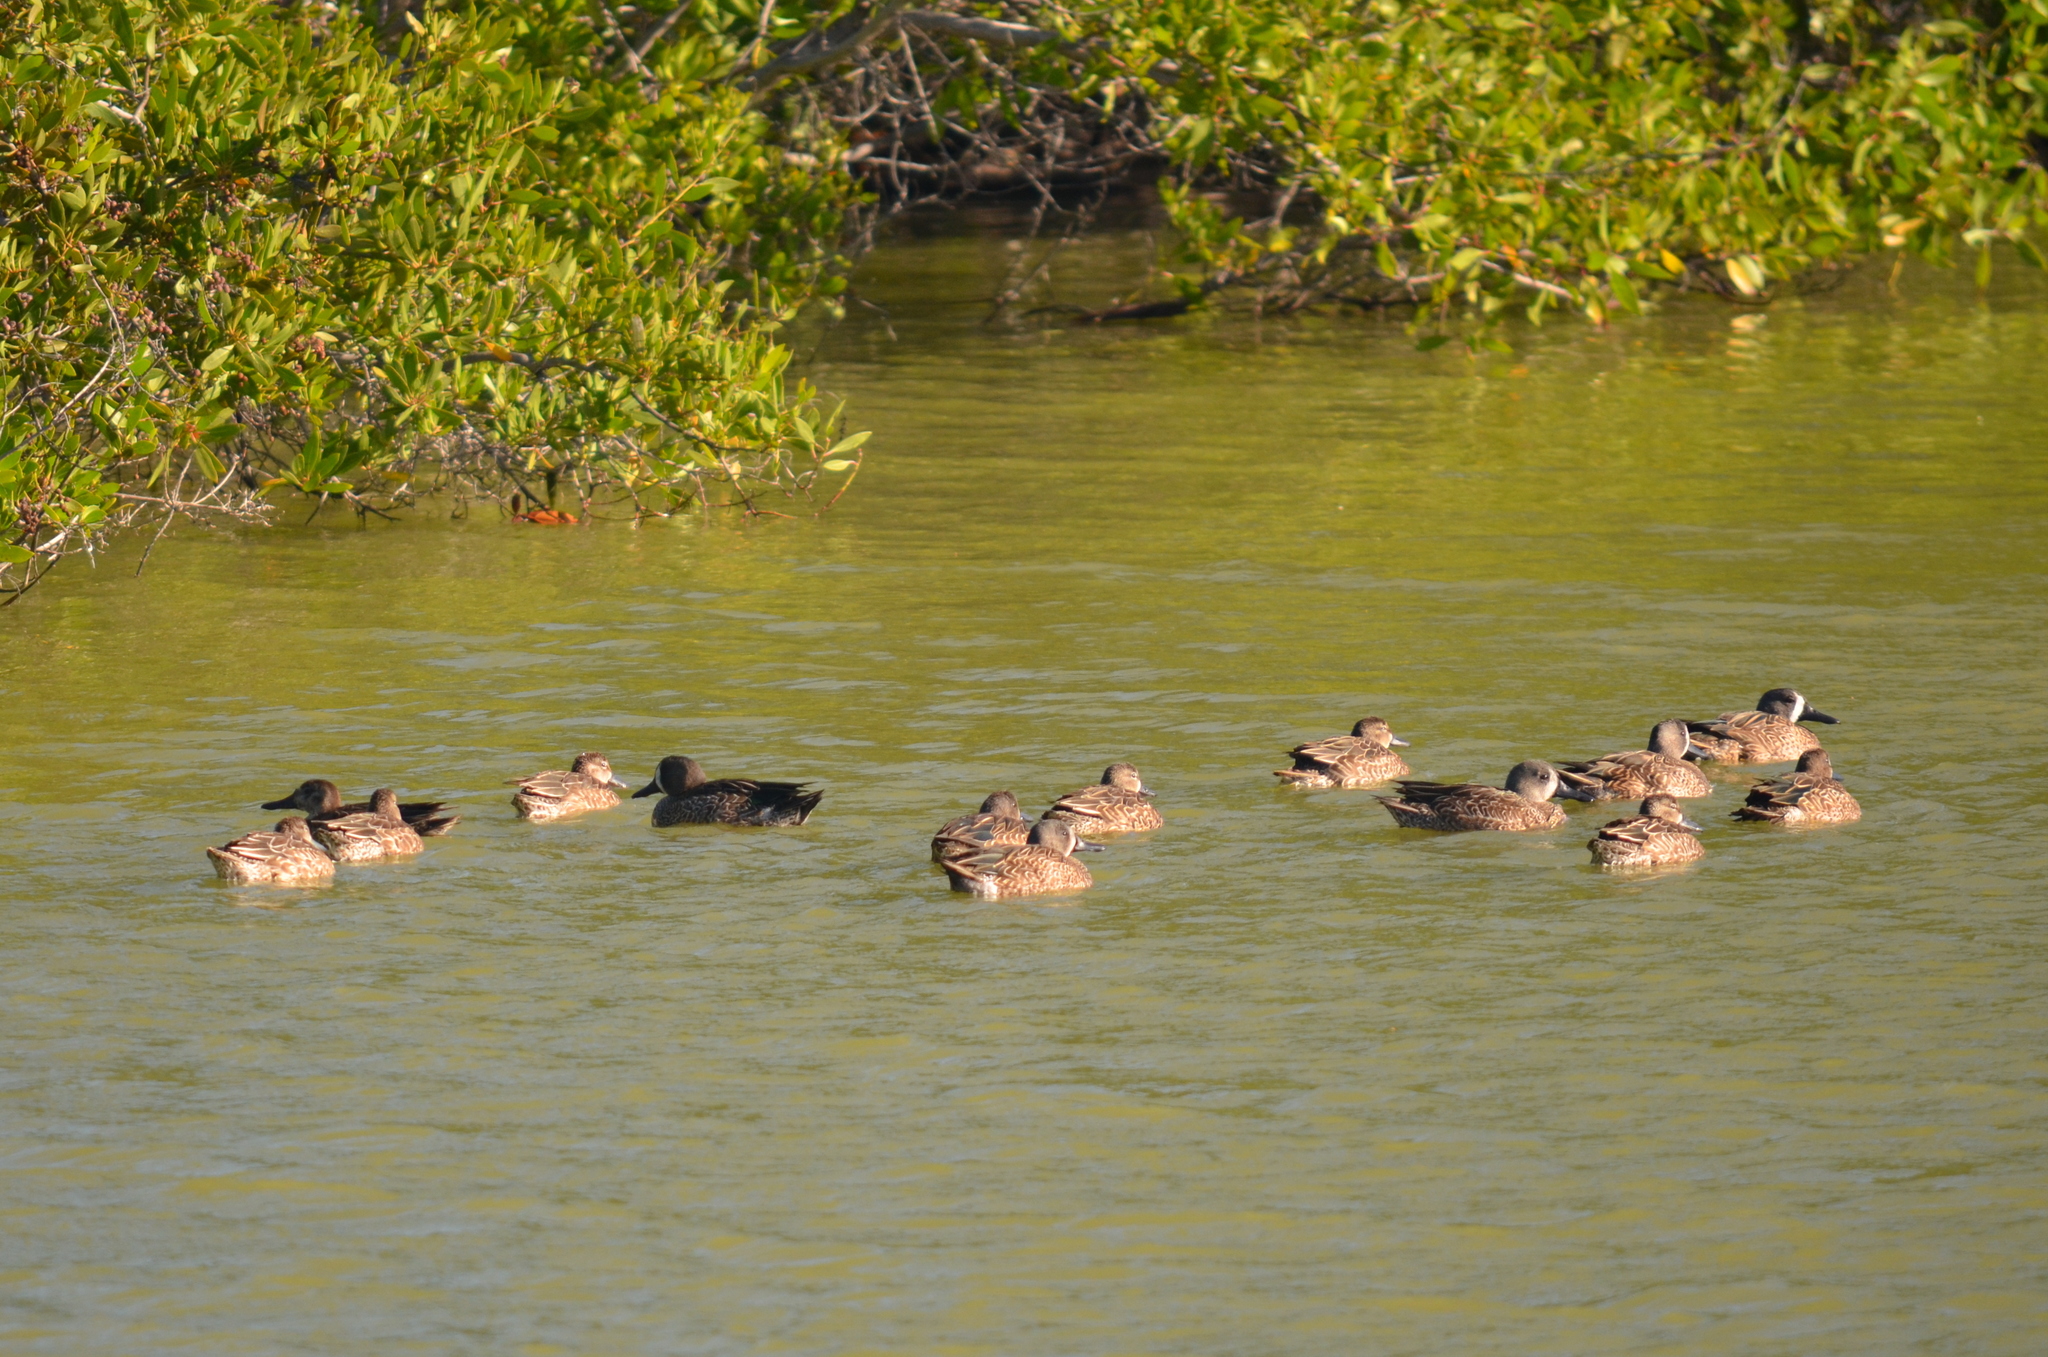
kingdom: Animalia
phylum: Chordata
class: Aves
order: Anseriformes
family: Anatidae
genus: Spatula
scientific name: Spatula discors
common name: Blue-winged teal
